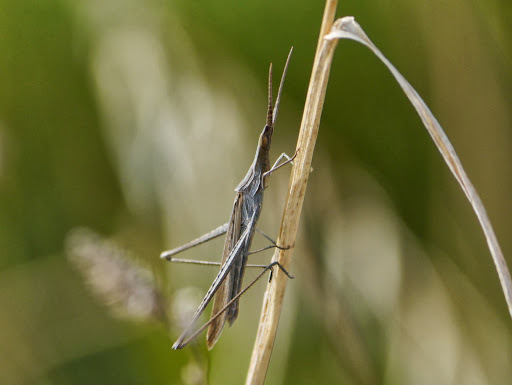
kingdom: Animalia
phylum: Arthropoda
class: Insecta
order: Orthoptera
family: Acrididae
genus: Acrida
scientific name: Acrida ungarica
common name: Common cone-headed grasshopper
